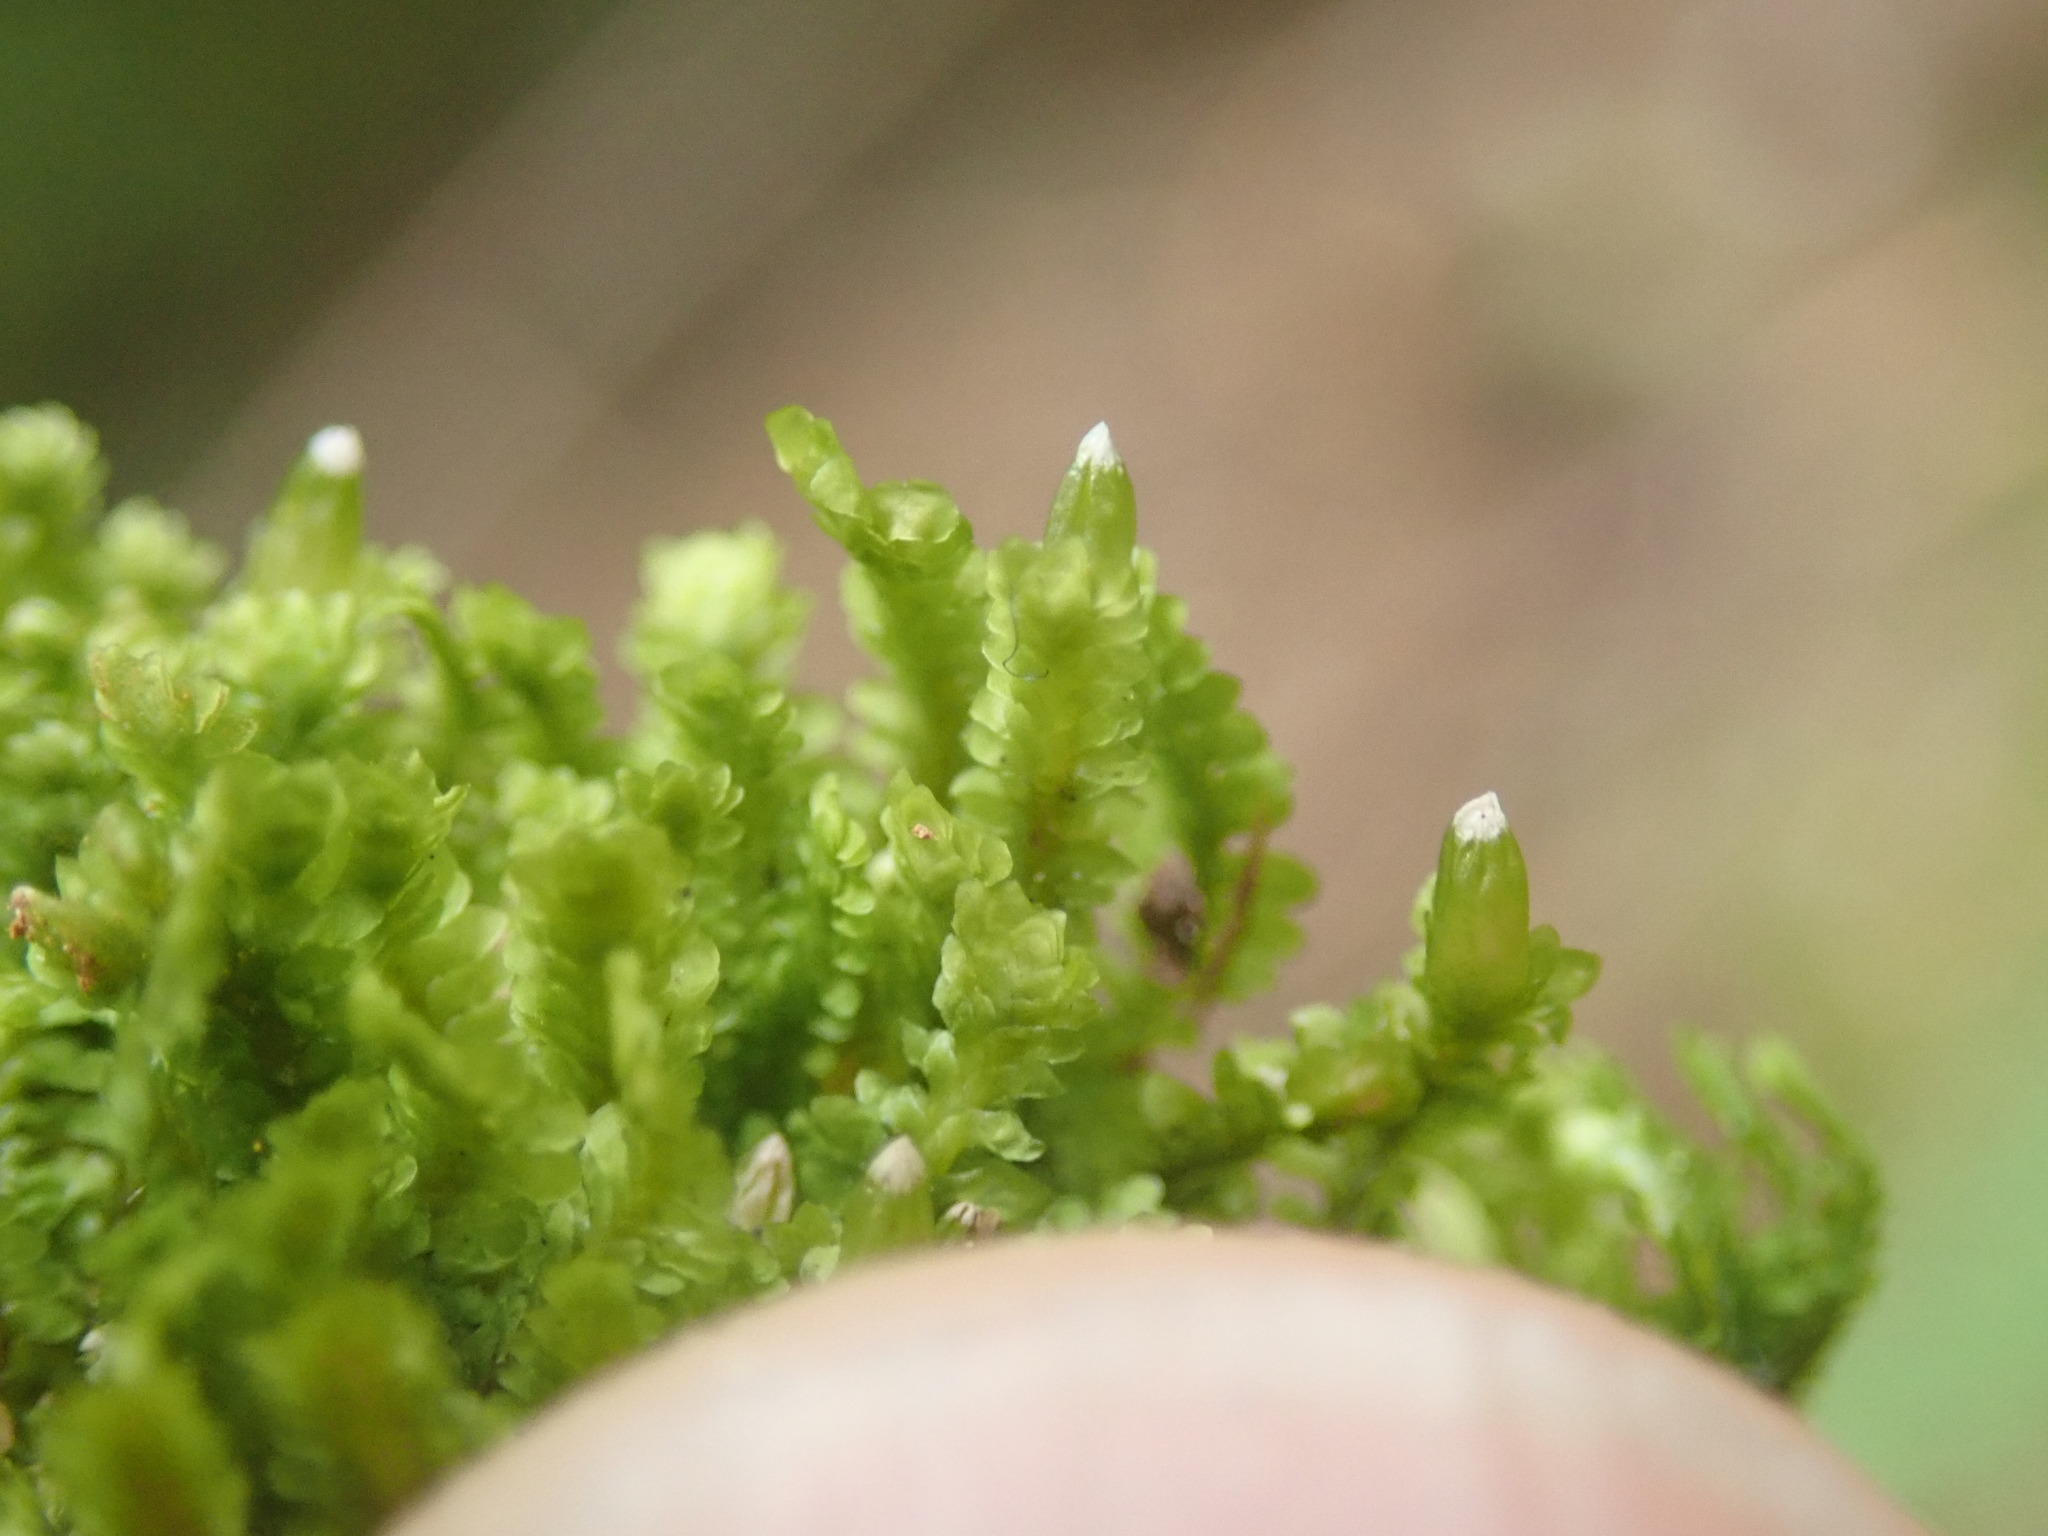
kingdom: Plantae
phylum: Marchantiophyta
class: Jungermanniopsida
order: Jungermanniales
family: Scapaniaceae
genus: Diplophyllum
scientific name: Diplophyllum taxifolium
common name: Alpine earwort
